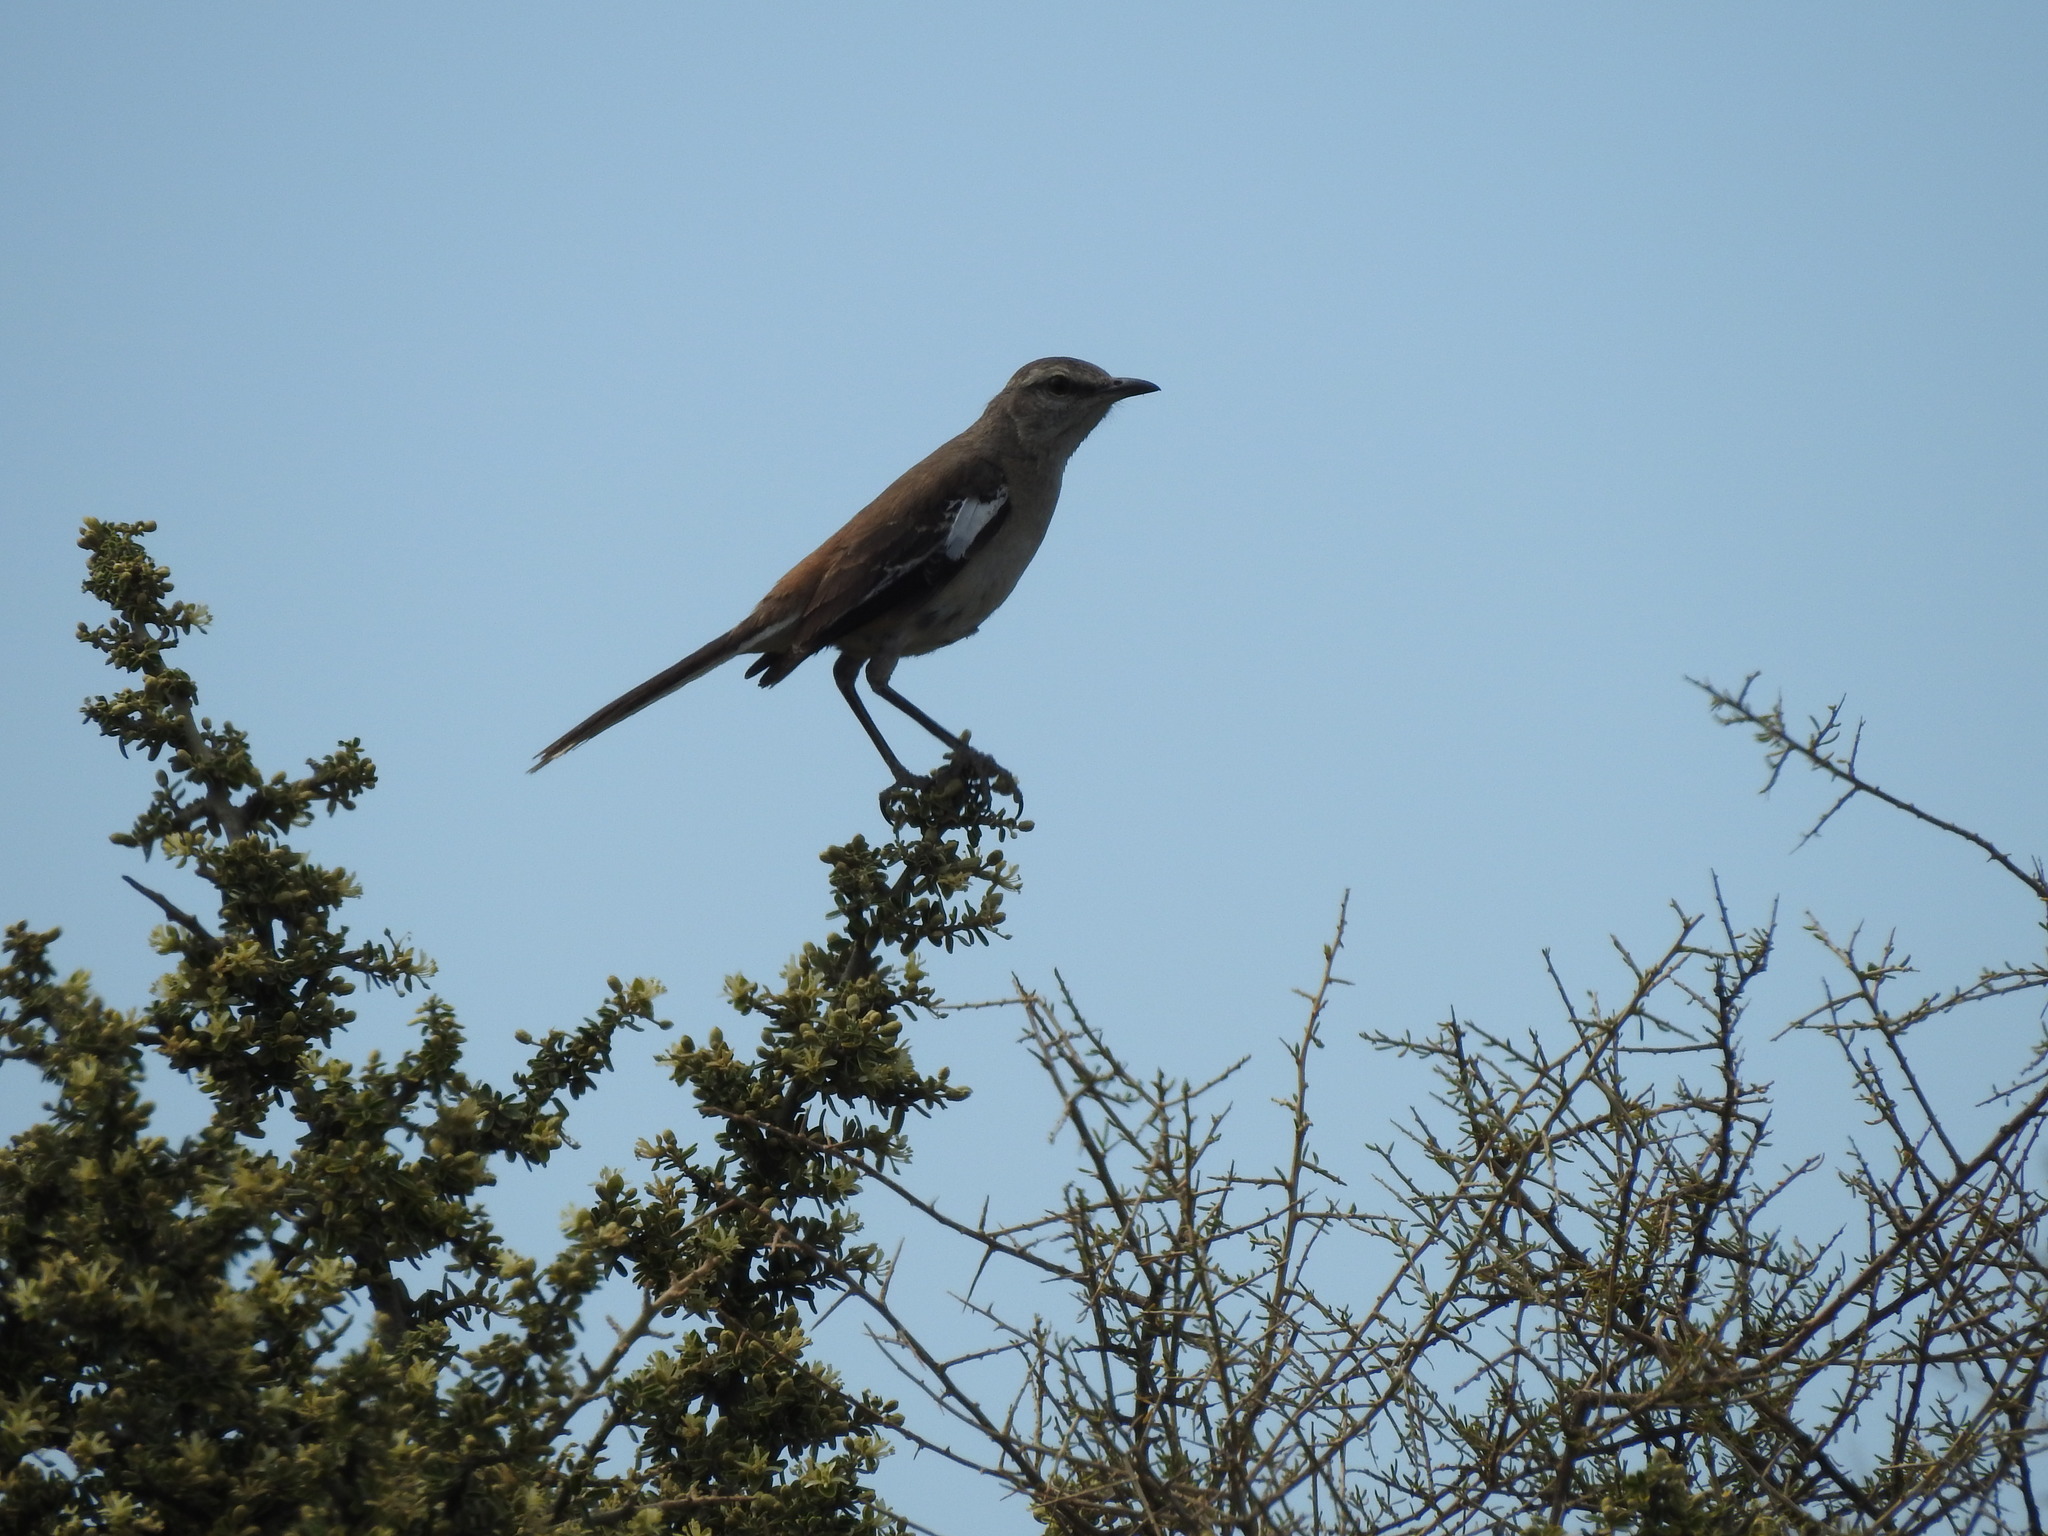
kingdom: Animalia
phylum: Chordata
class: Aves
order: Passeriformes
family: Mimidae
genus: Mimus
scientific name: Mimus triurus
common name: White-banded mockingbird
